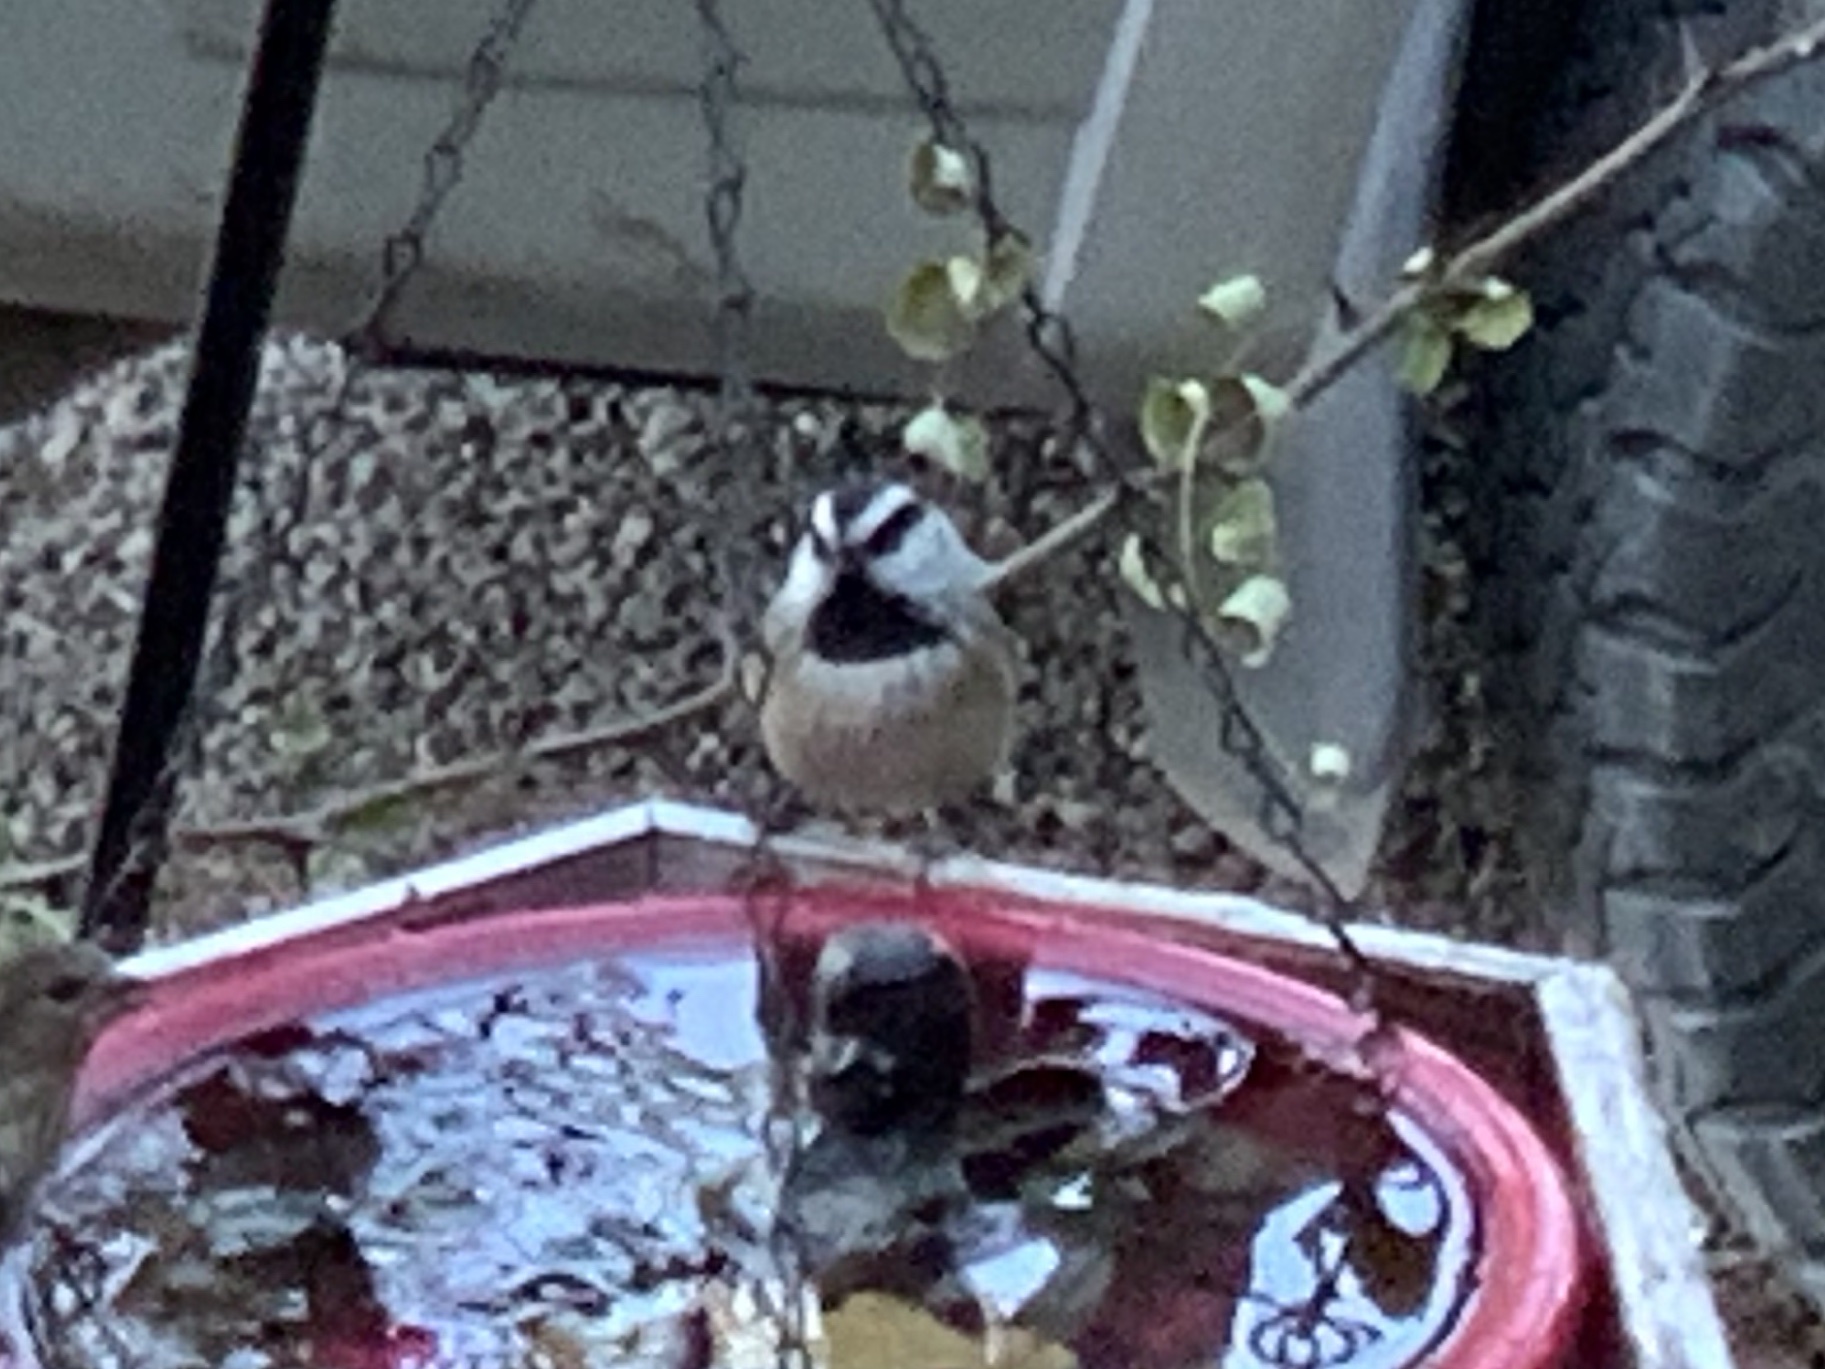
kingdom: Animalia
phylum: Chordata
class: Aves
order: Passeriformes
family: Paridae
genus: Poecile
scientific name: Poecile gambeli
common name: Mountain chickadee
